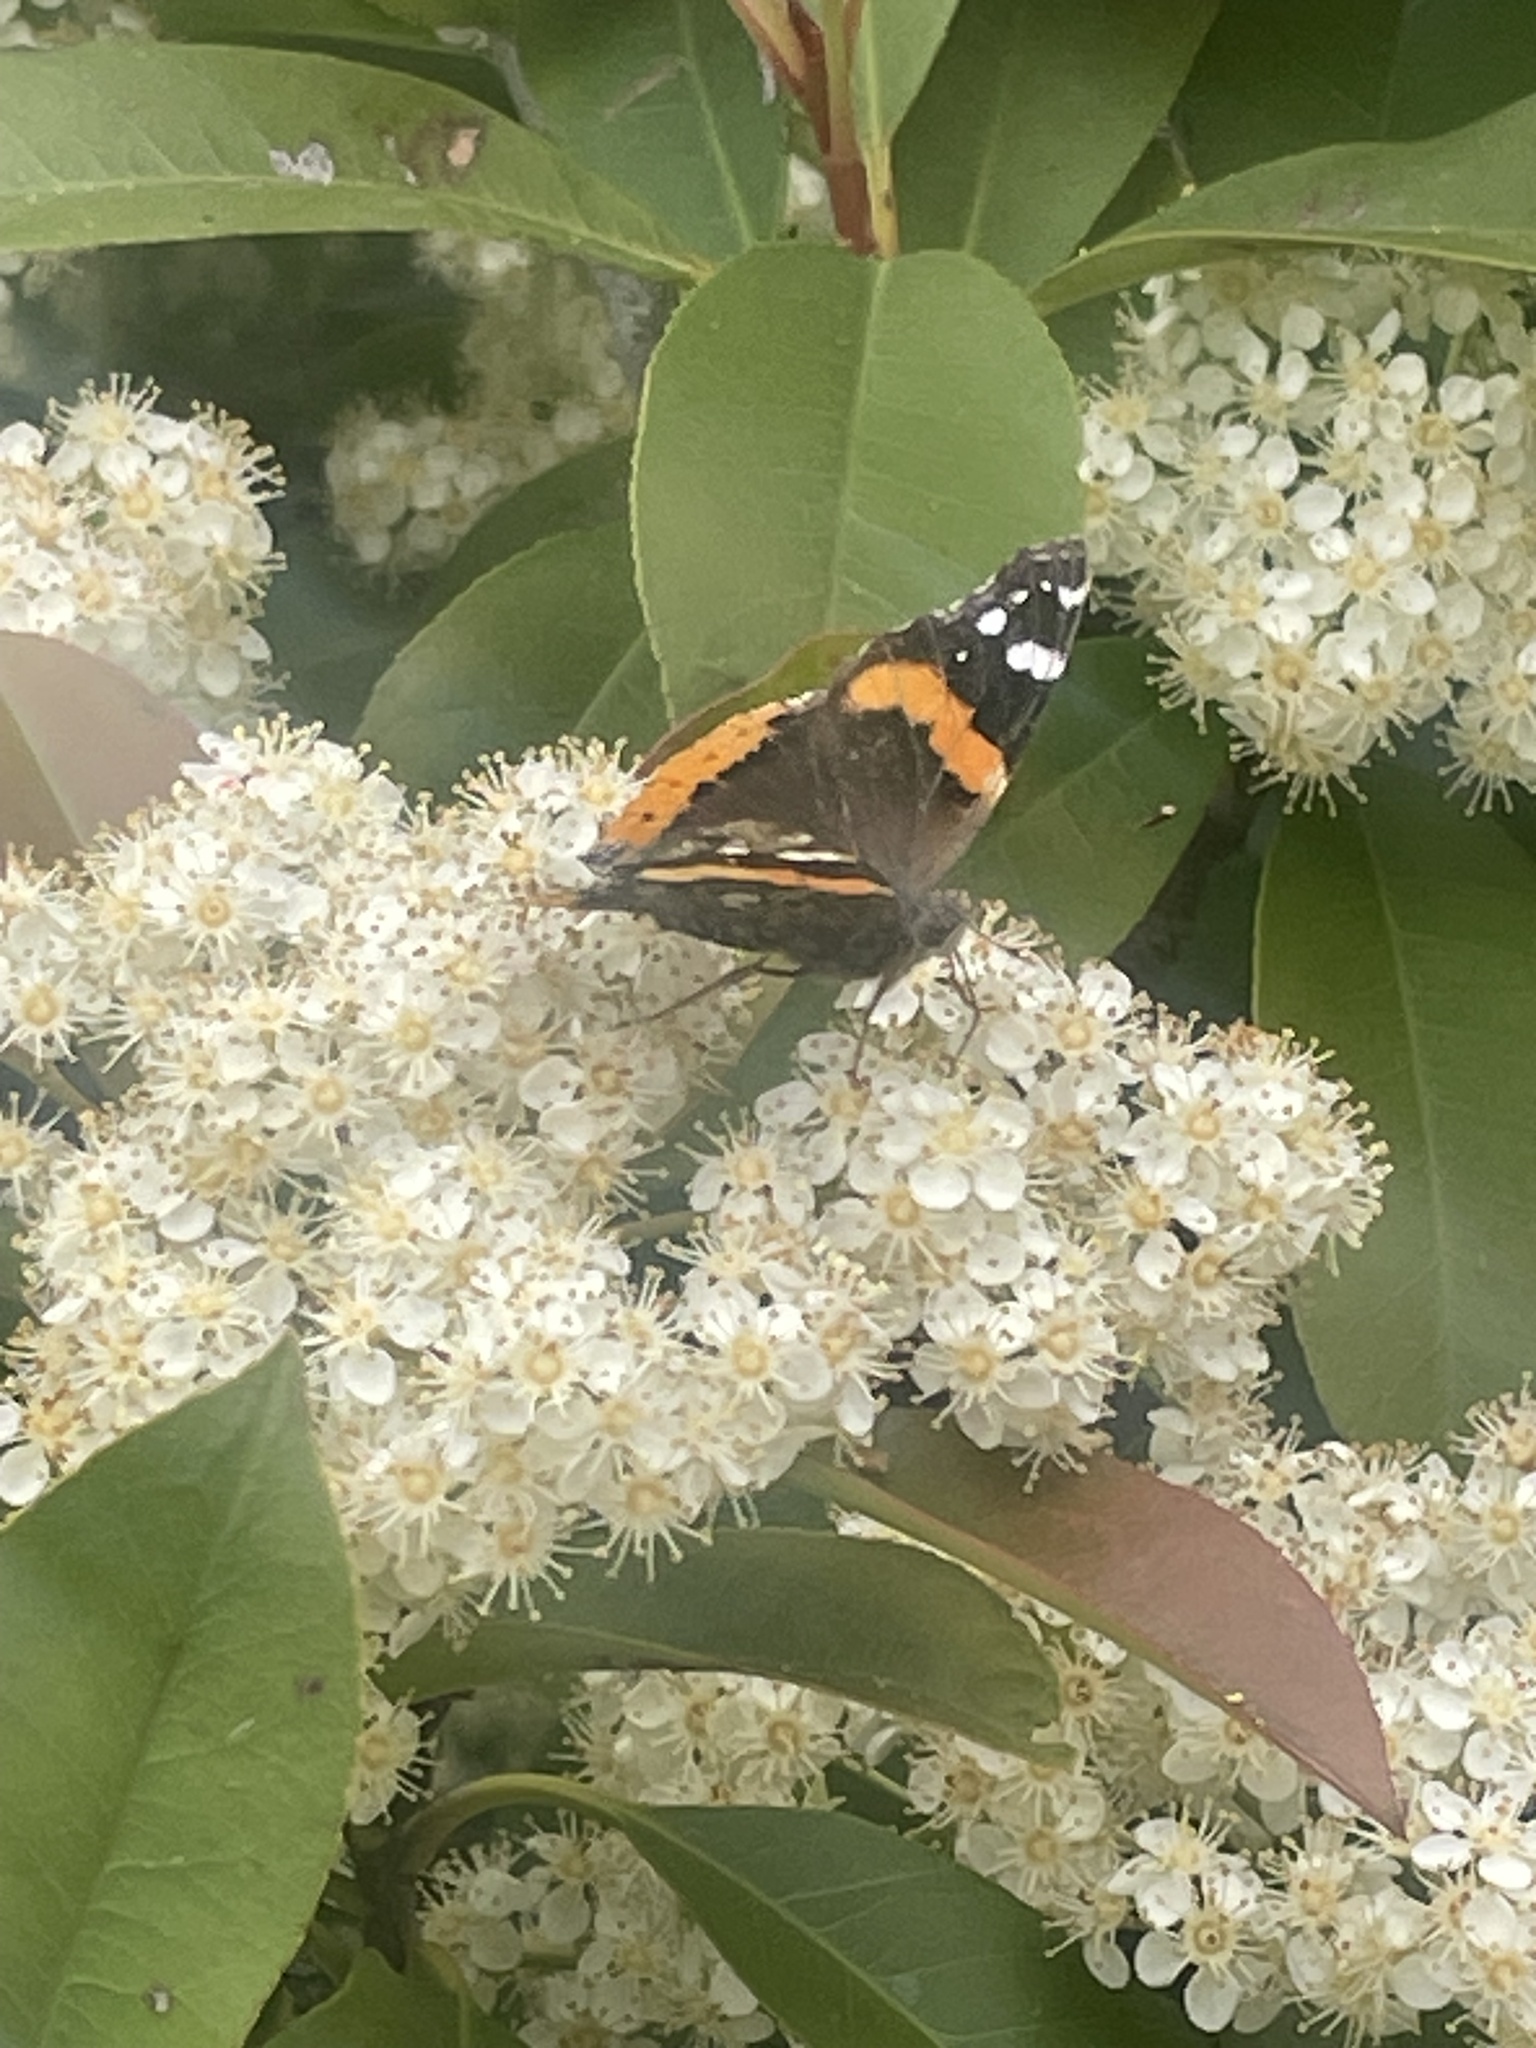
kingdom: Animalia
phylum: Arthropoda
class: Insecta
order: Lepidoptera
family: Nymphalidae
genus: Vanessa
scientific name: Vanessa atalanta
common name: Red admiral
